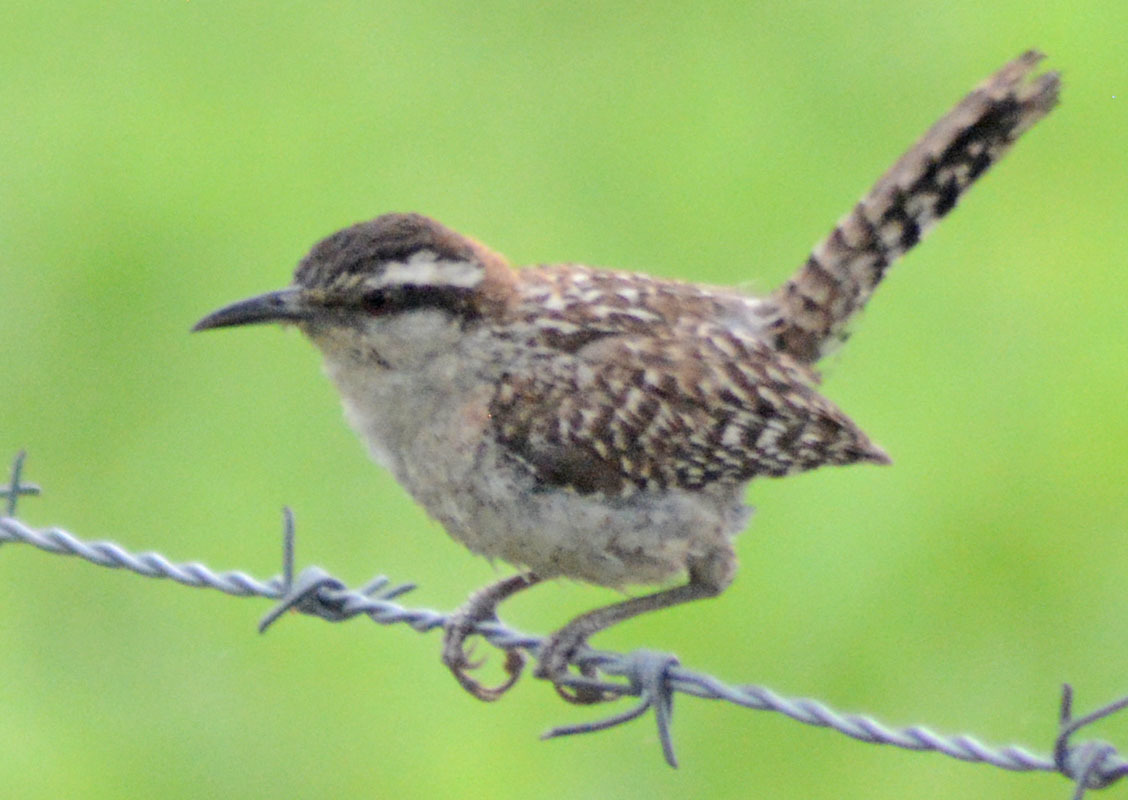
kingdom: Animalia
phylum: Chordata
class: Aves
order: Passeriformes
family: Troglodytidae
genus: Campylorhynchus
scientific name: Campylorhynchus rufinucha
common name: Rufous-naped wren
